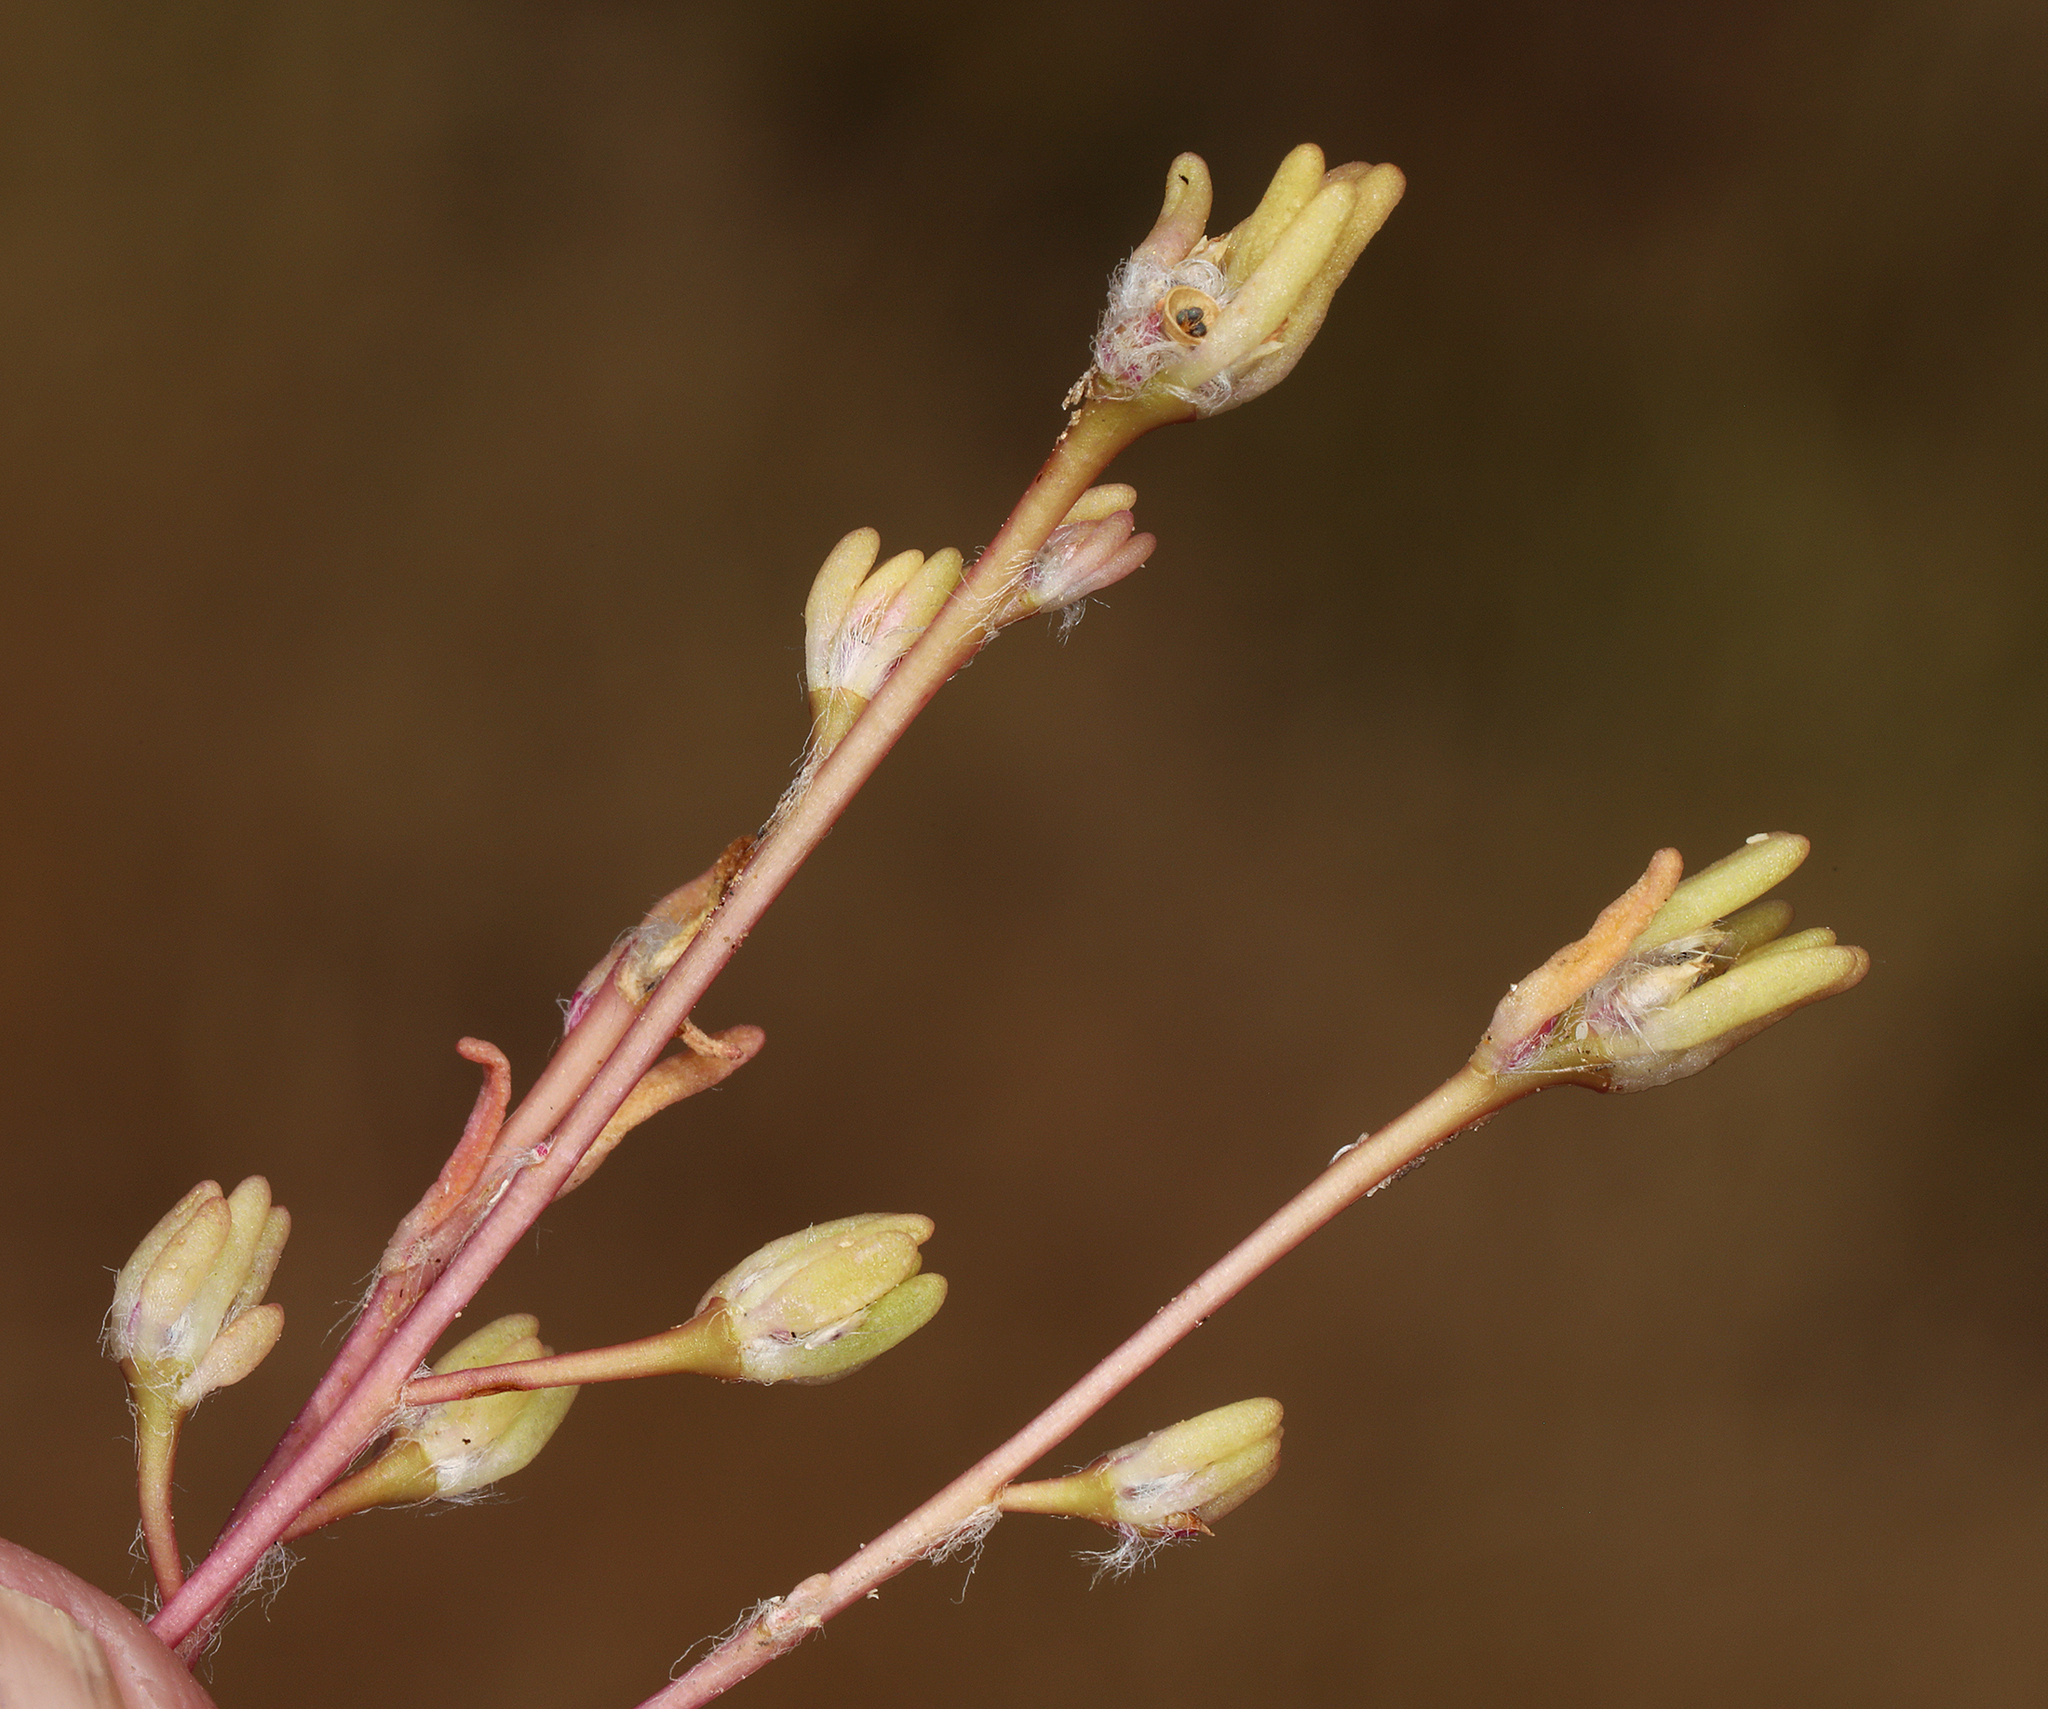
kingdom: Plantae
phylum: Tracheophyta
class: Magnoliopsida
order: Caryophyllales
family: Portulacaceae
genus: Portulaca
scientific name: Portulaca halimoides
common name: Silk cotton purslane
